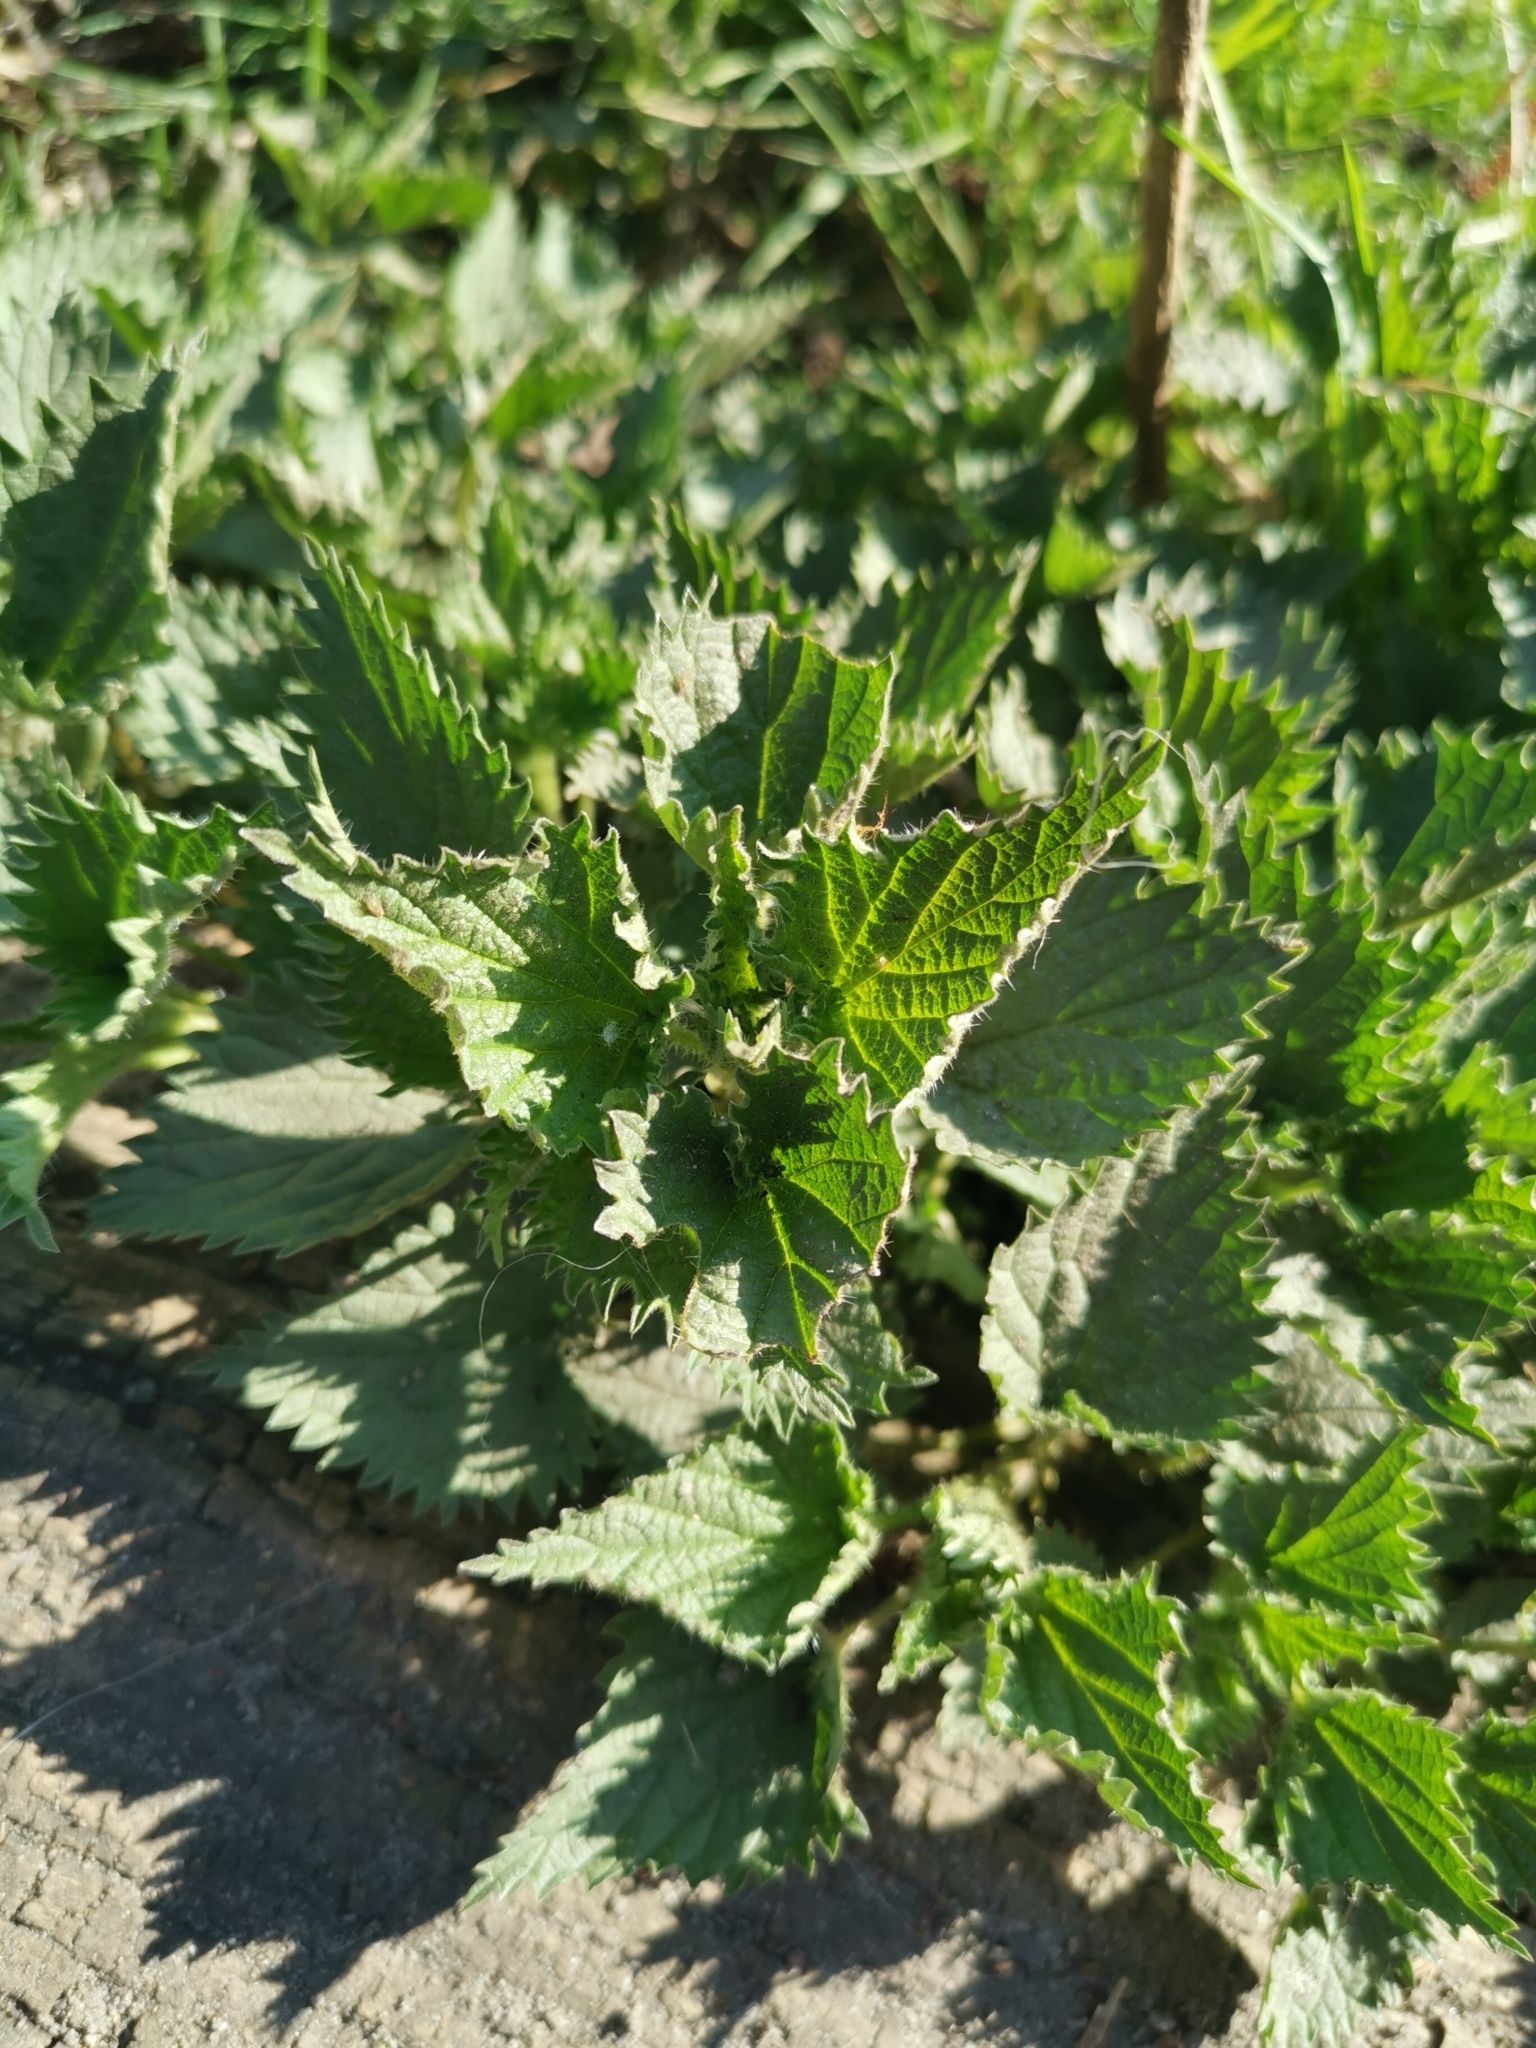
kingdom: Plantae
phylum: Tracheophyta
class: Magnoliopsida
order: Rosales
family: Urticaceae
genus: Urtica
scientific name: Urtica dioica
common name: Common nettle
